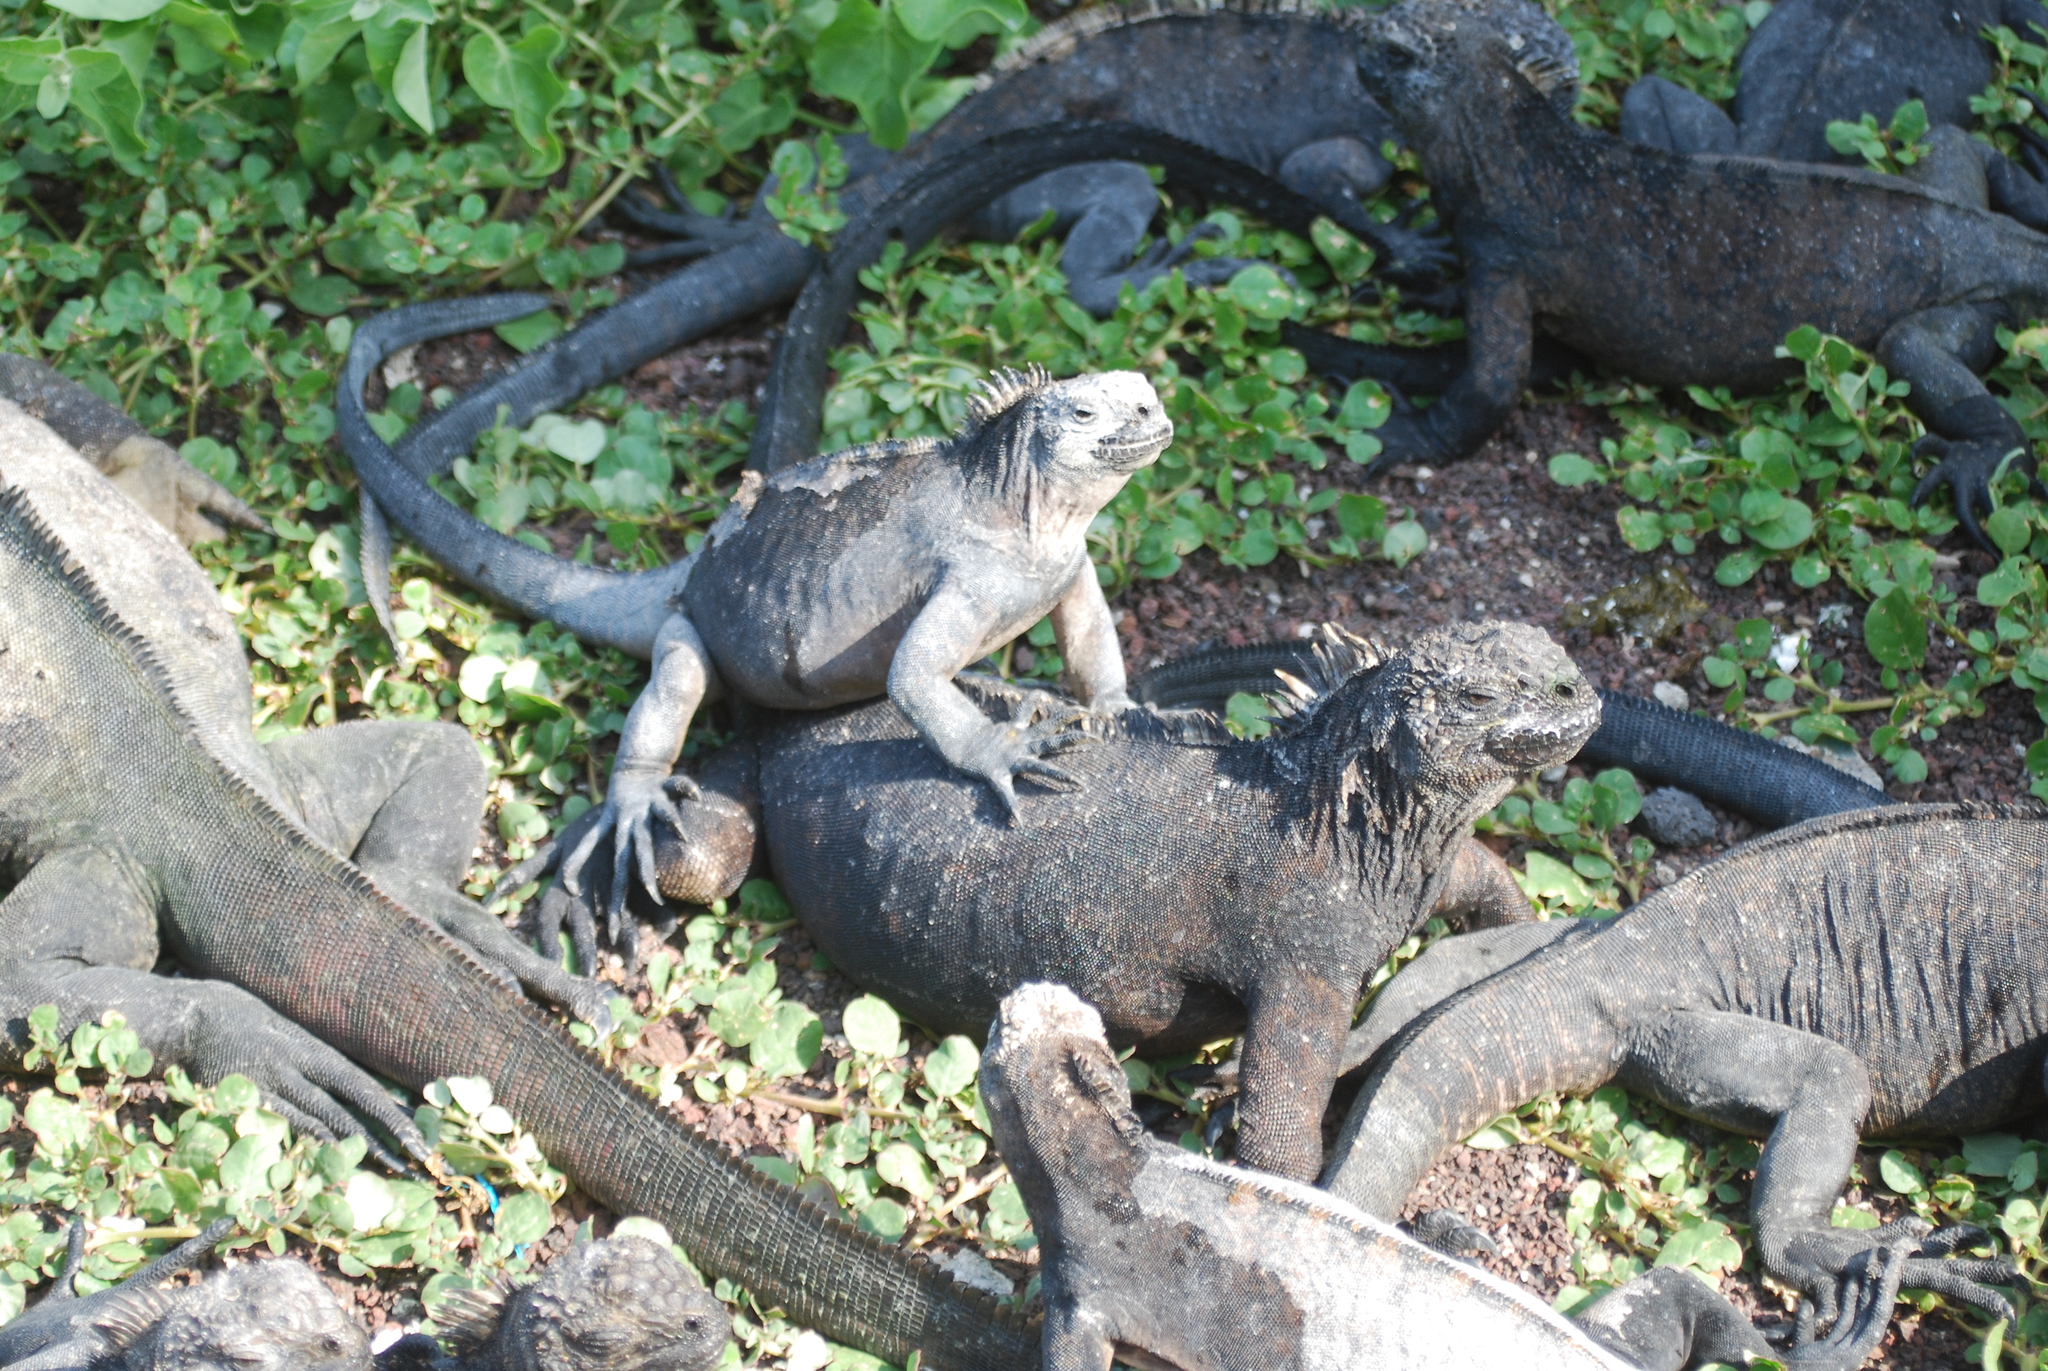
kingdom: Animalia
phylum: Chordata
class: Squamata
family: Iguanidae
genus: Amblyrhynchus
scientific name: Amblyrhynchus cristatus
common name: Marine iguana
